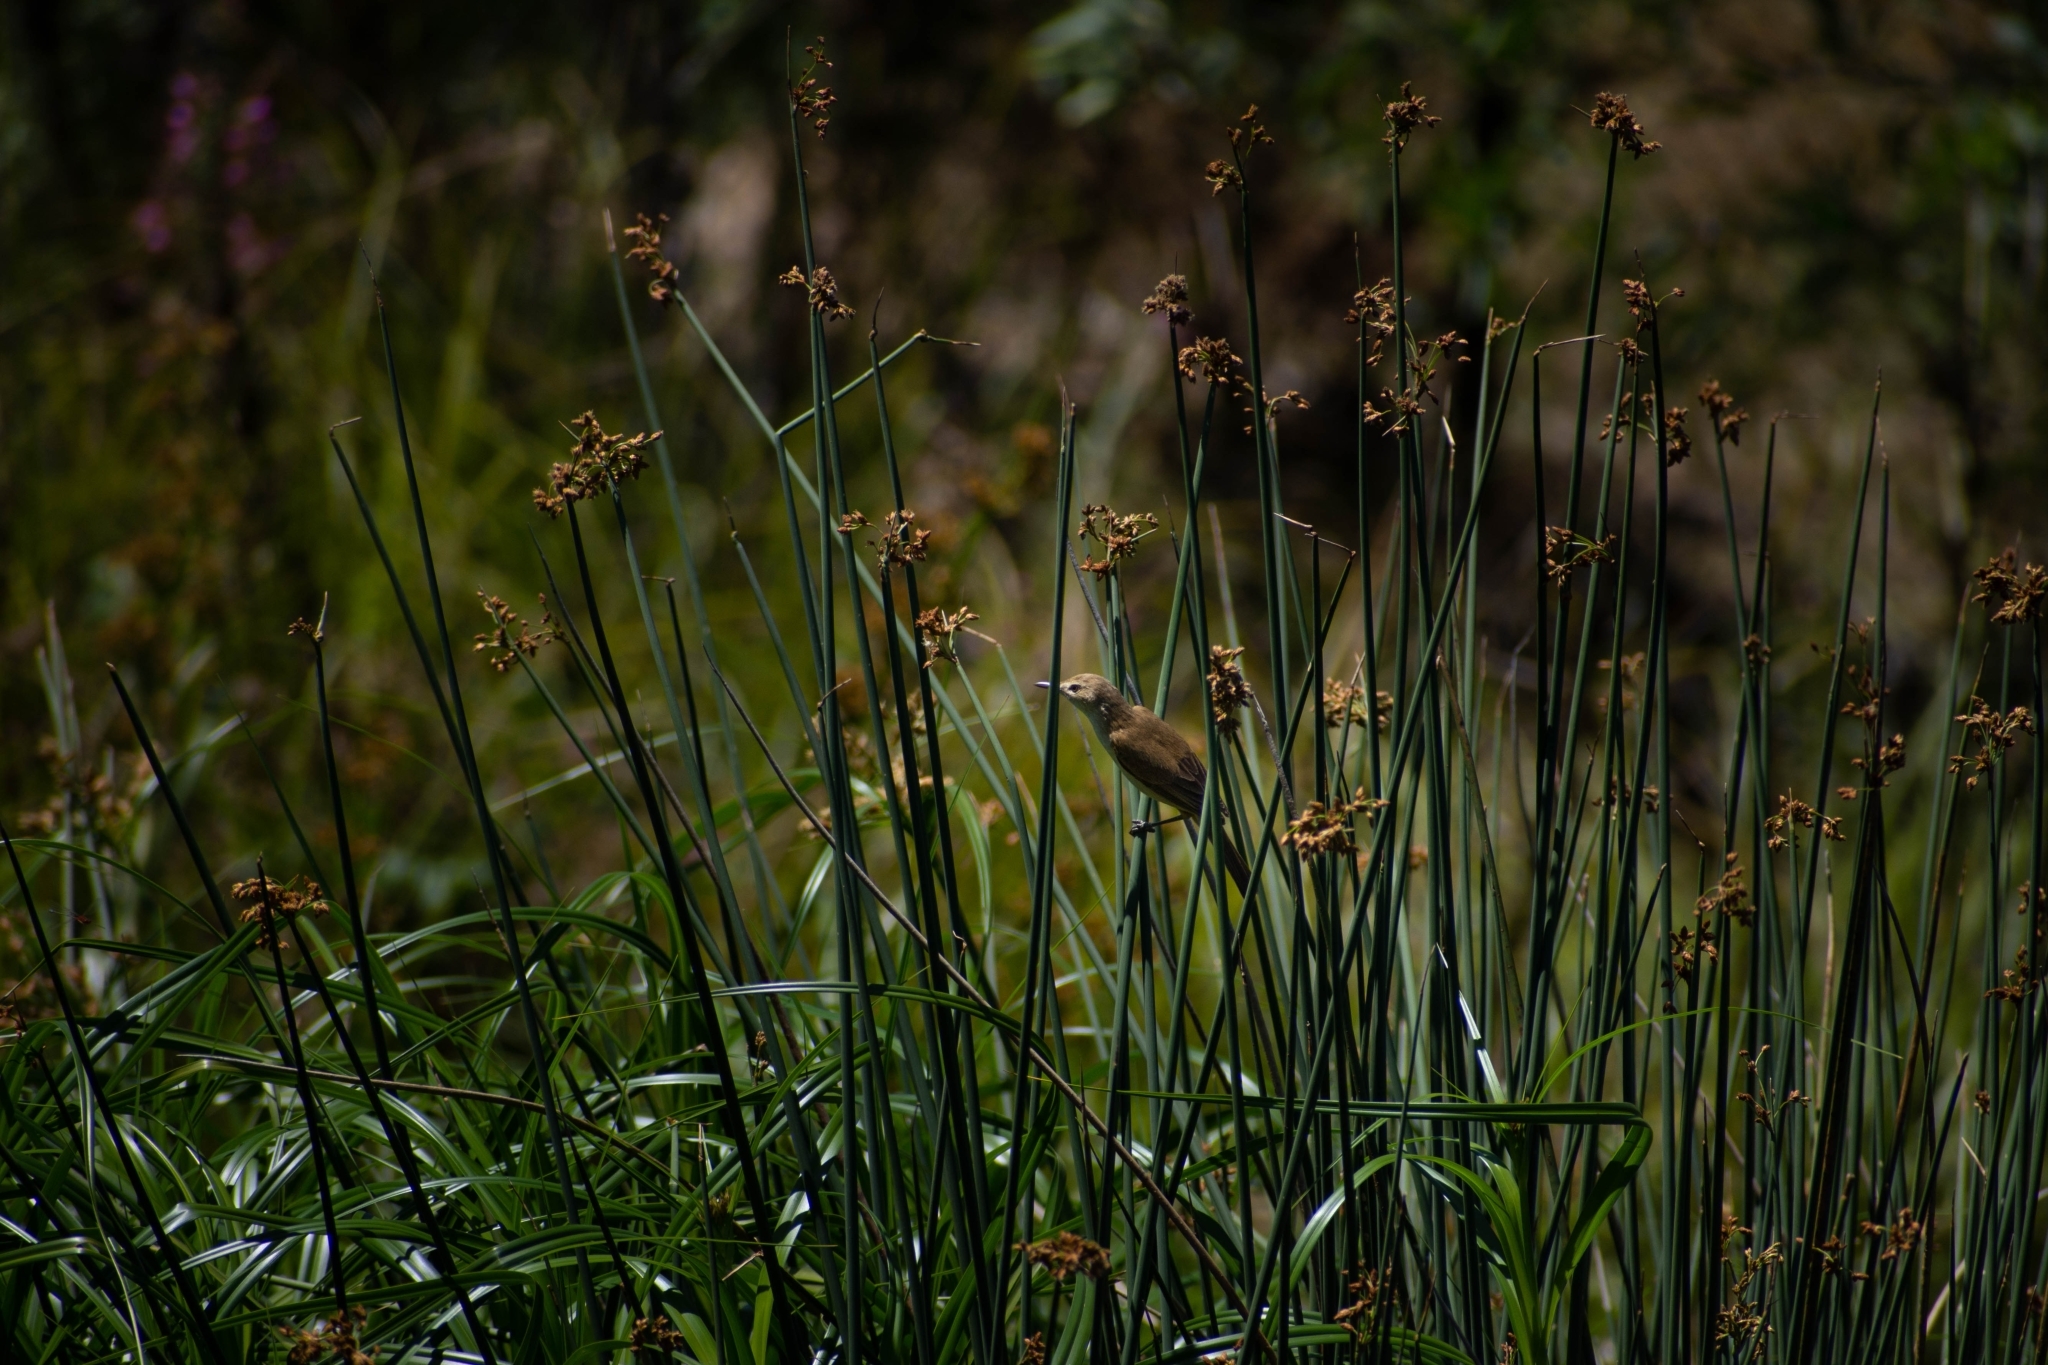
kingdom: Animalia
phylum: Chordata
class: Aves
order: Passeriformes
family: Acrocephalidae
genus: Acrocephalus
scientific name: Acrocephalus australis
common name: Australian reed warbler
